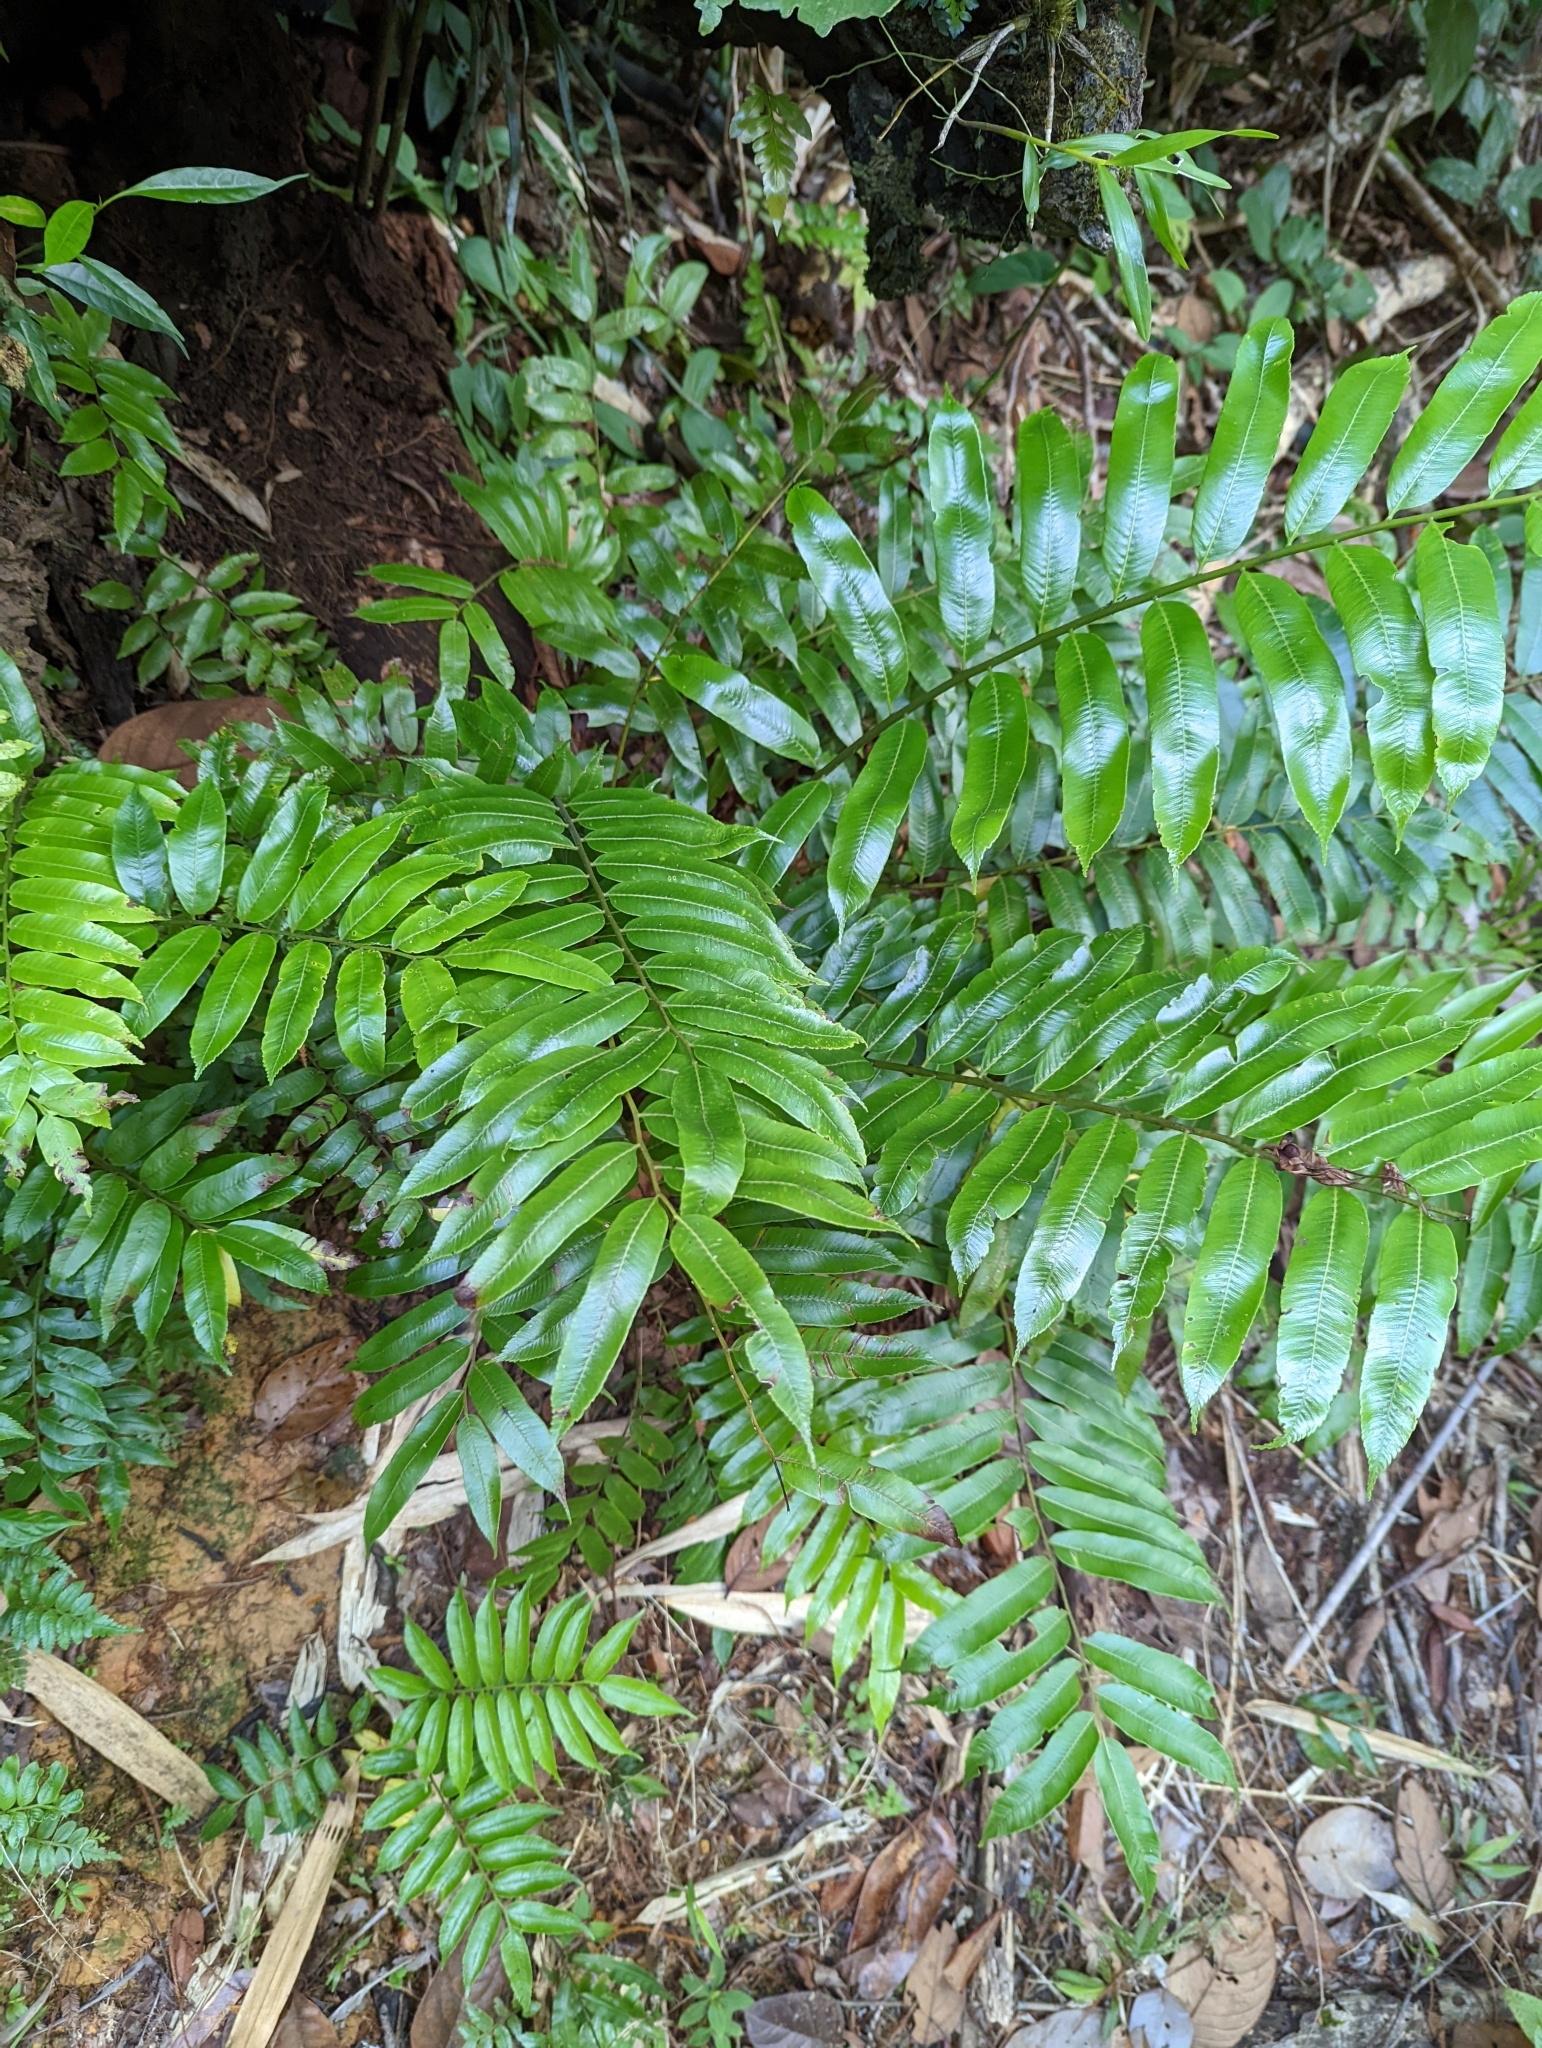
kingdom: Plantae
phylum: Tracheophyta
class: Polypodiopsida
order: Cyatheales
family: Cyatheaceae
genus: Sphaeropteris
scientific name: Sphaeropteris capitata
